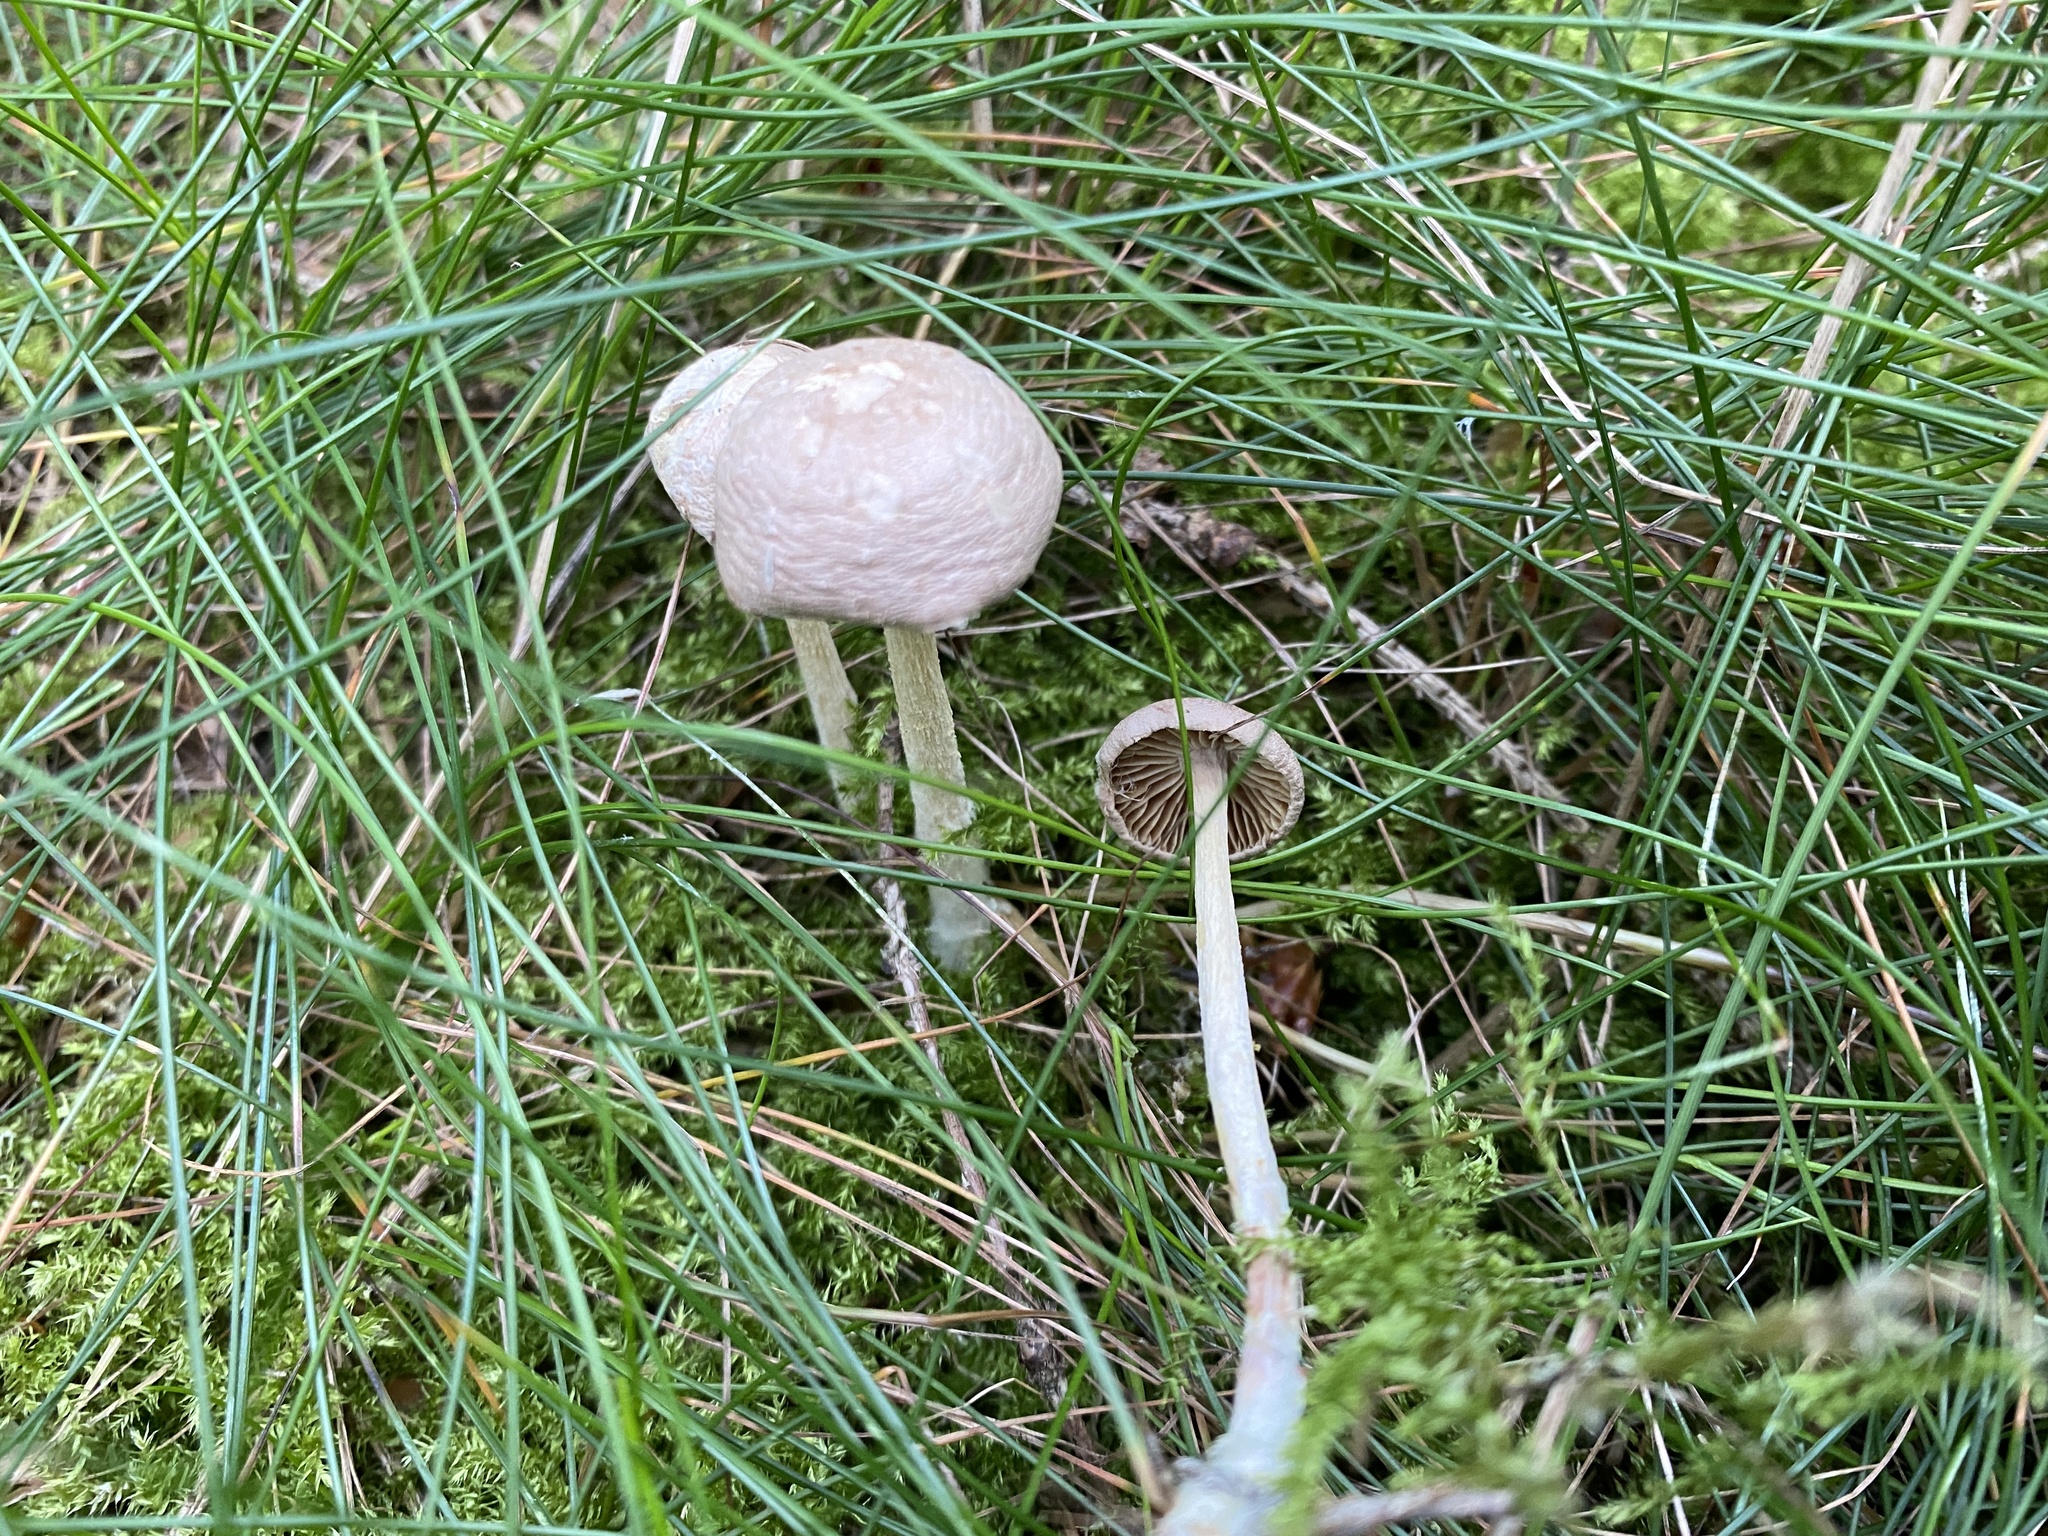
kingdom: Fungi
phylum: Basidiomycota
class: Agaricomycetes
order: Agaricales
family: Omphalotaceae
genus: Collybiopsis
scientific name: Collybiopsis peronata
